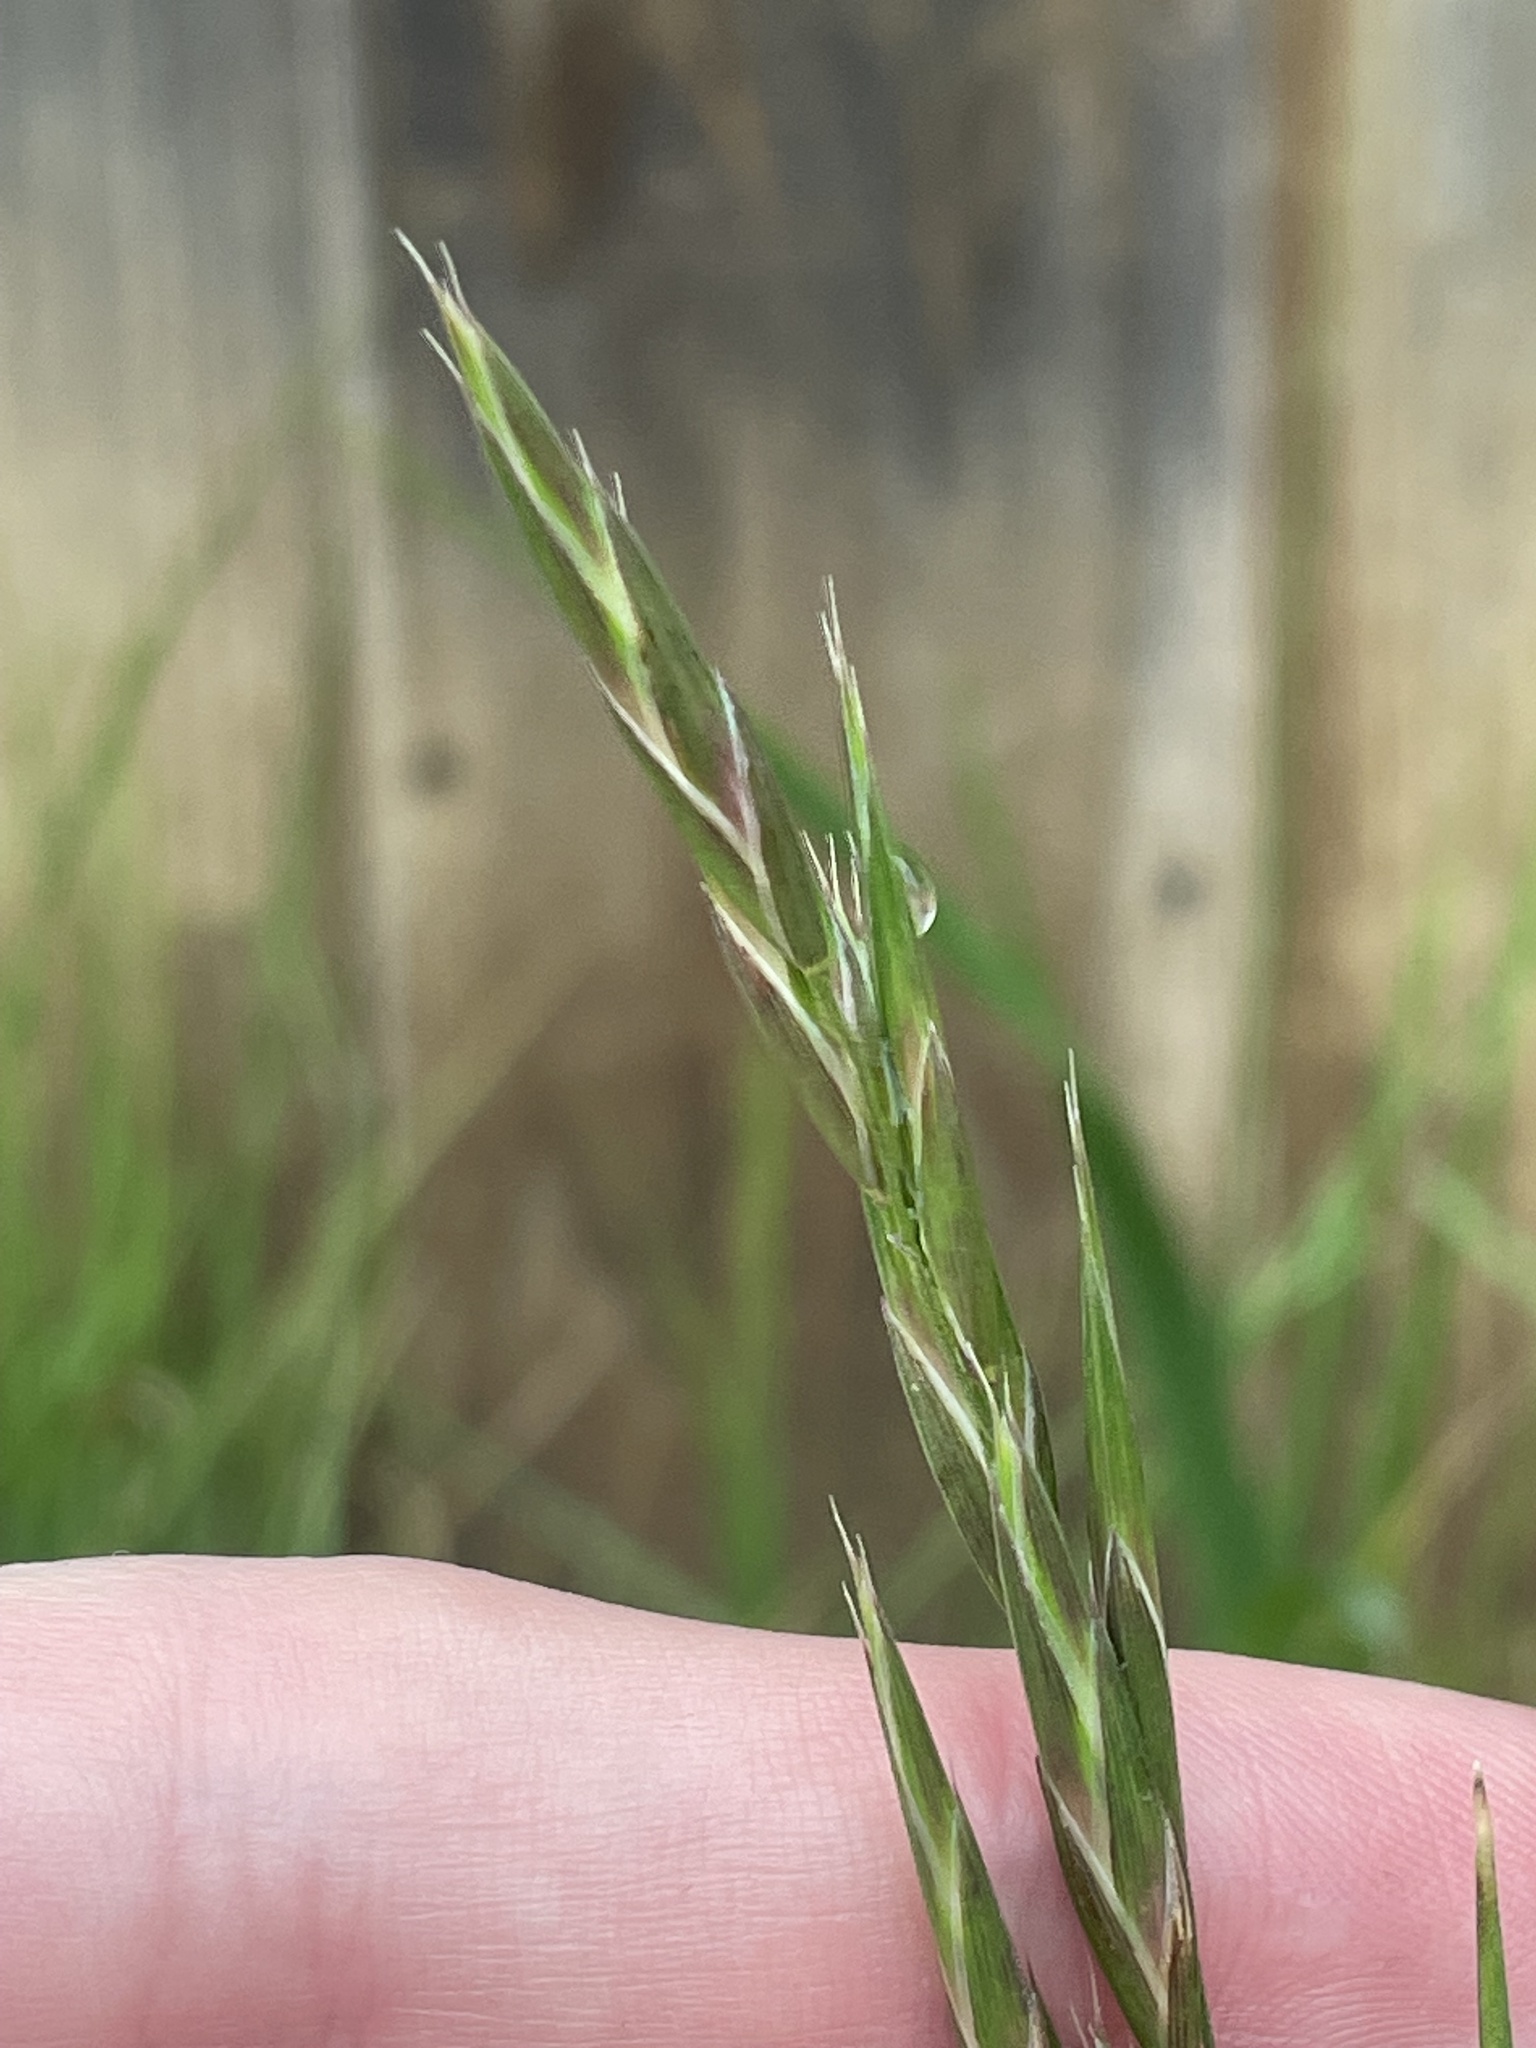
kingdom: Plantae
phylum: Tracheophyta
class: Liliopsida
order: Poales
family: Poaceae
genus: Bromus
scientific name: Bromus catharticus
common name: Rescuegrass
